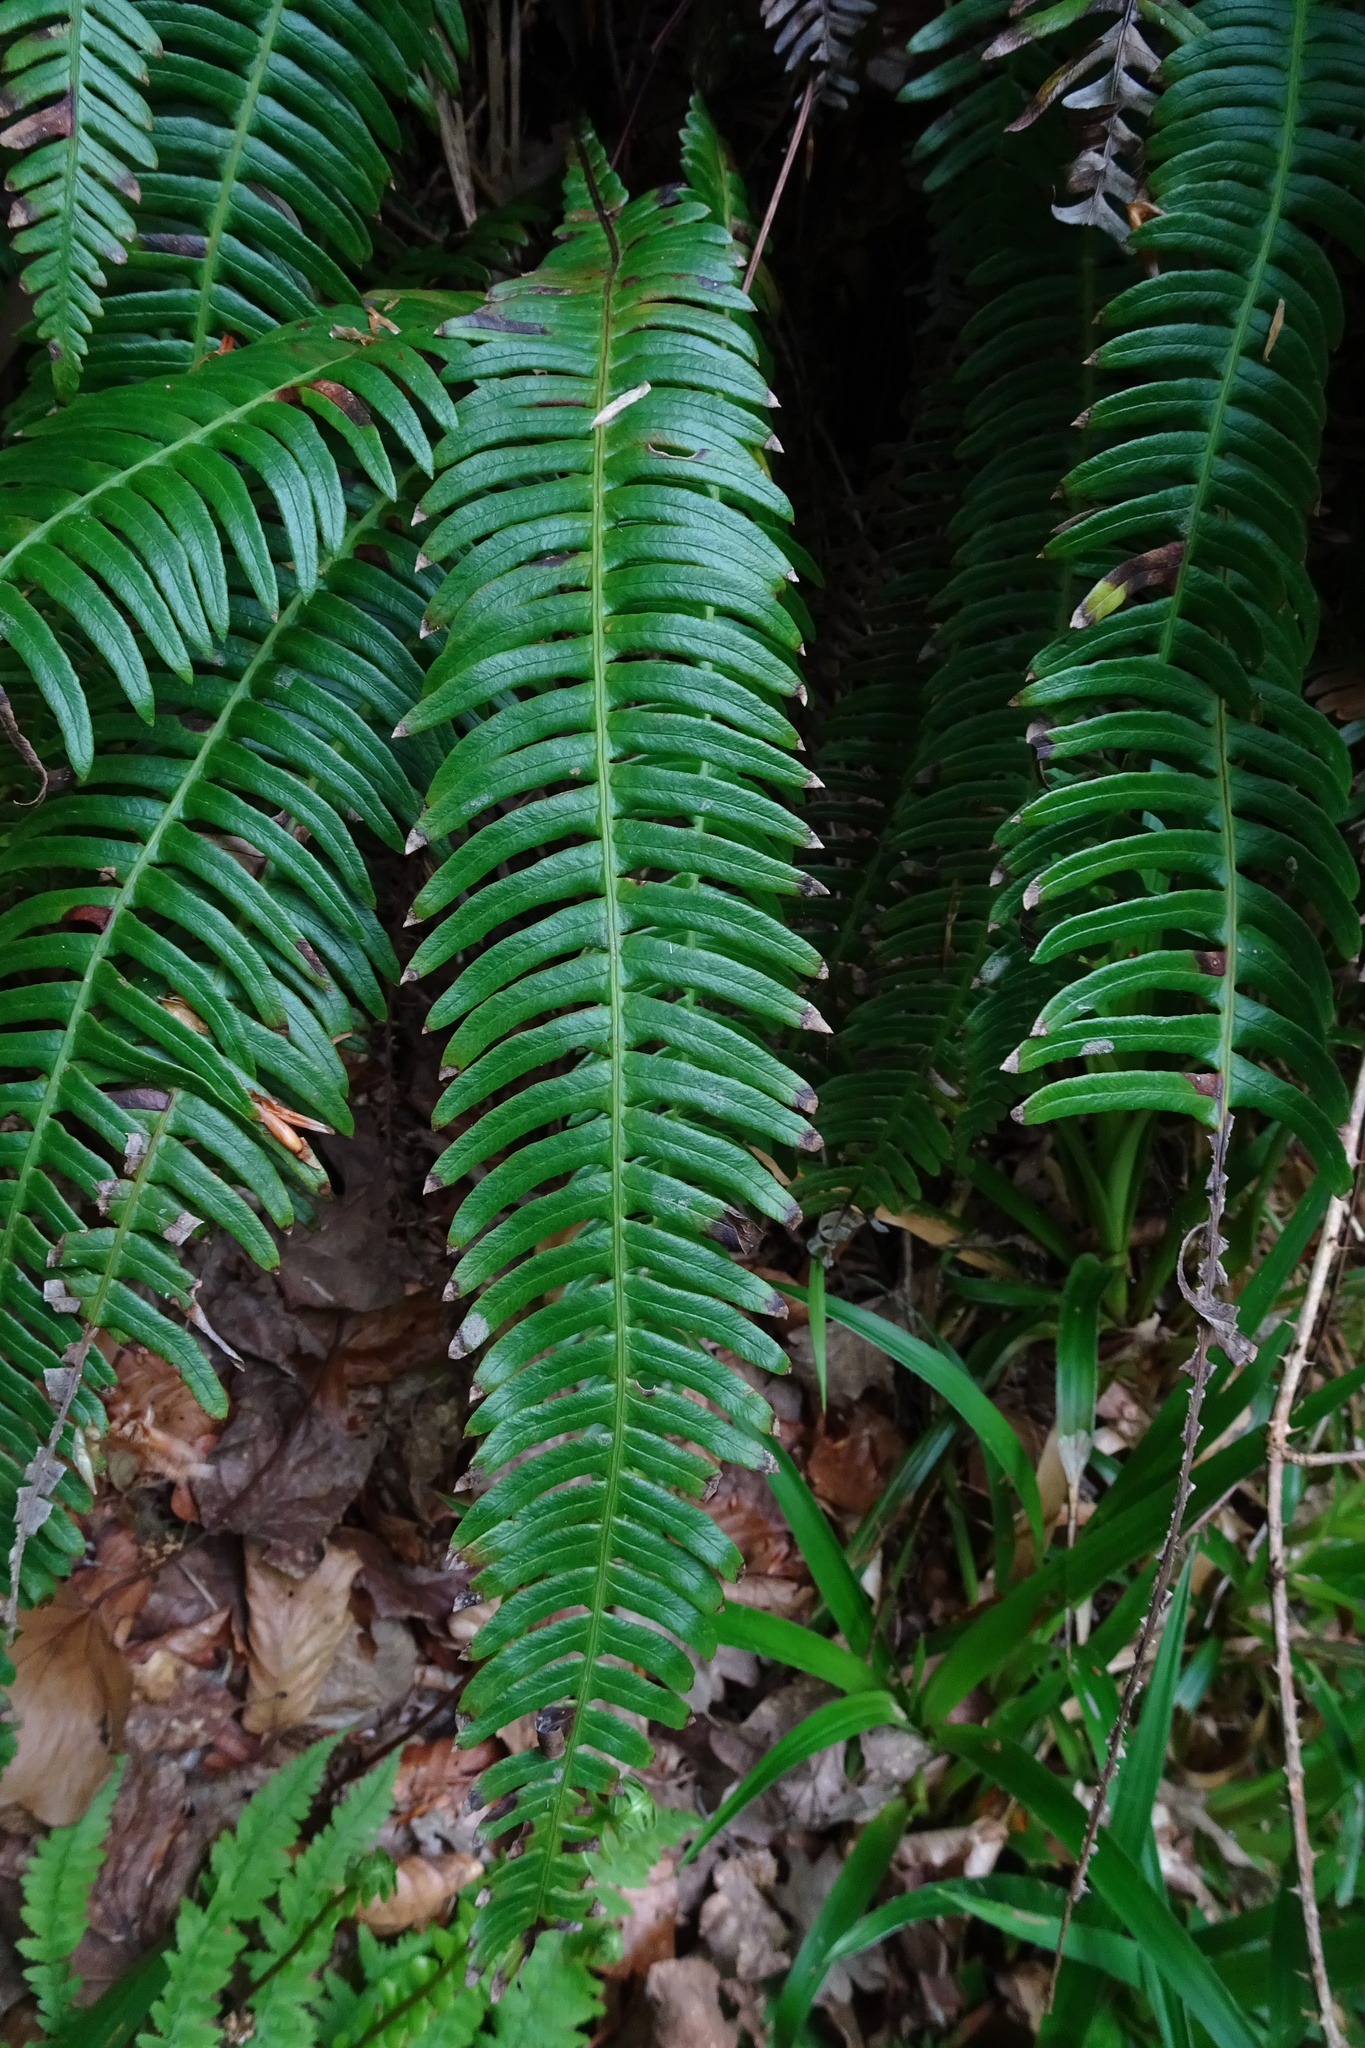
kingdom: Plantae
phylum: Tracheophyta
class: Polypodiopsida
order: Polypodiales
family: Blechnaceae
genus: Struthiopteris
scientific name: Struthiopteris spicant
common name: Deer fern
